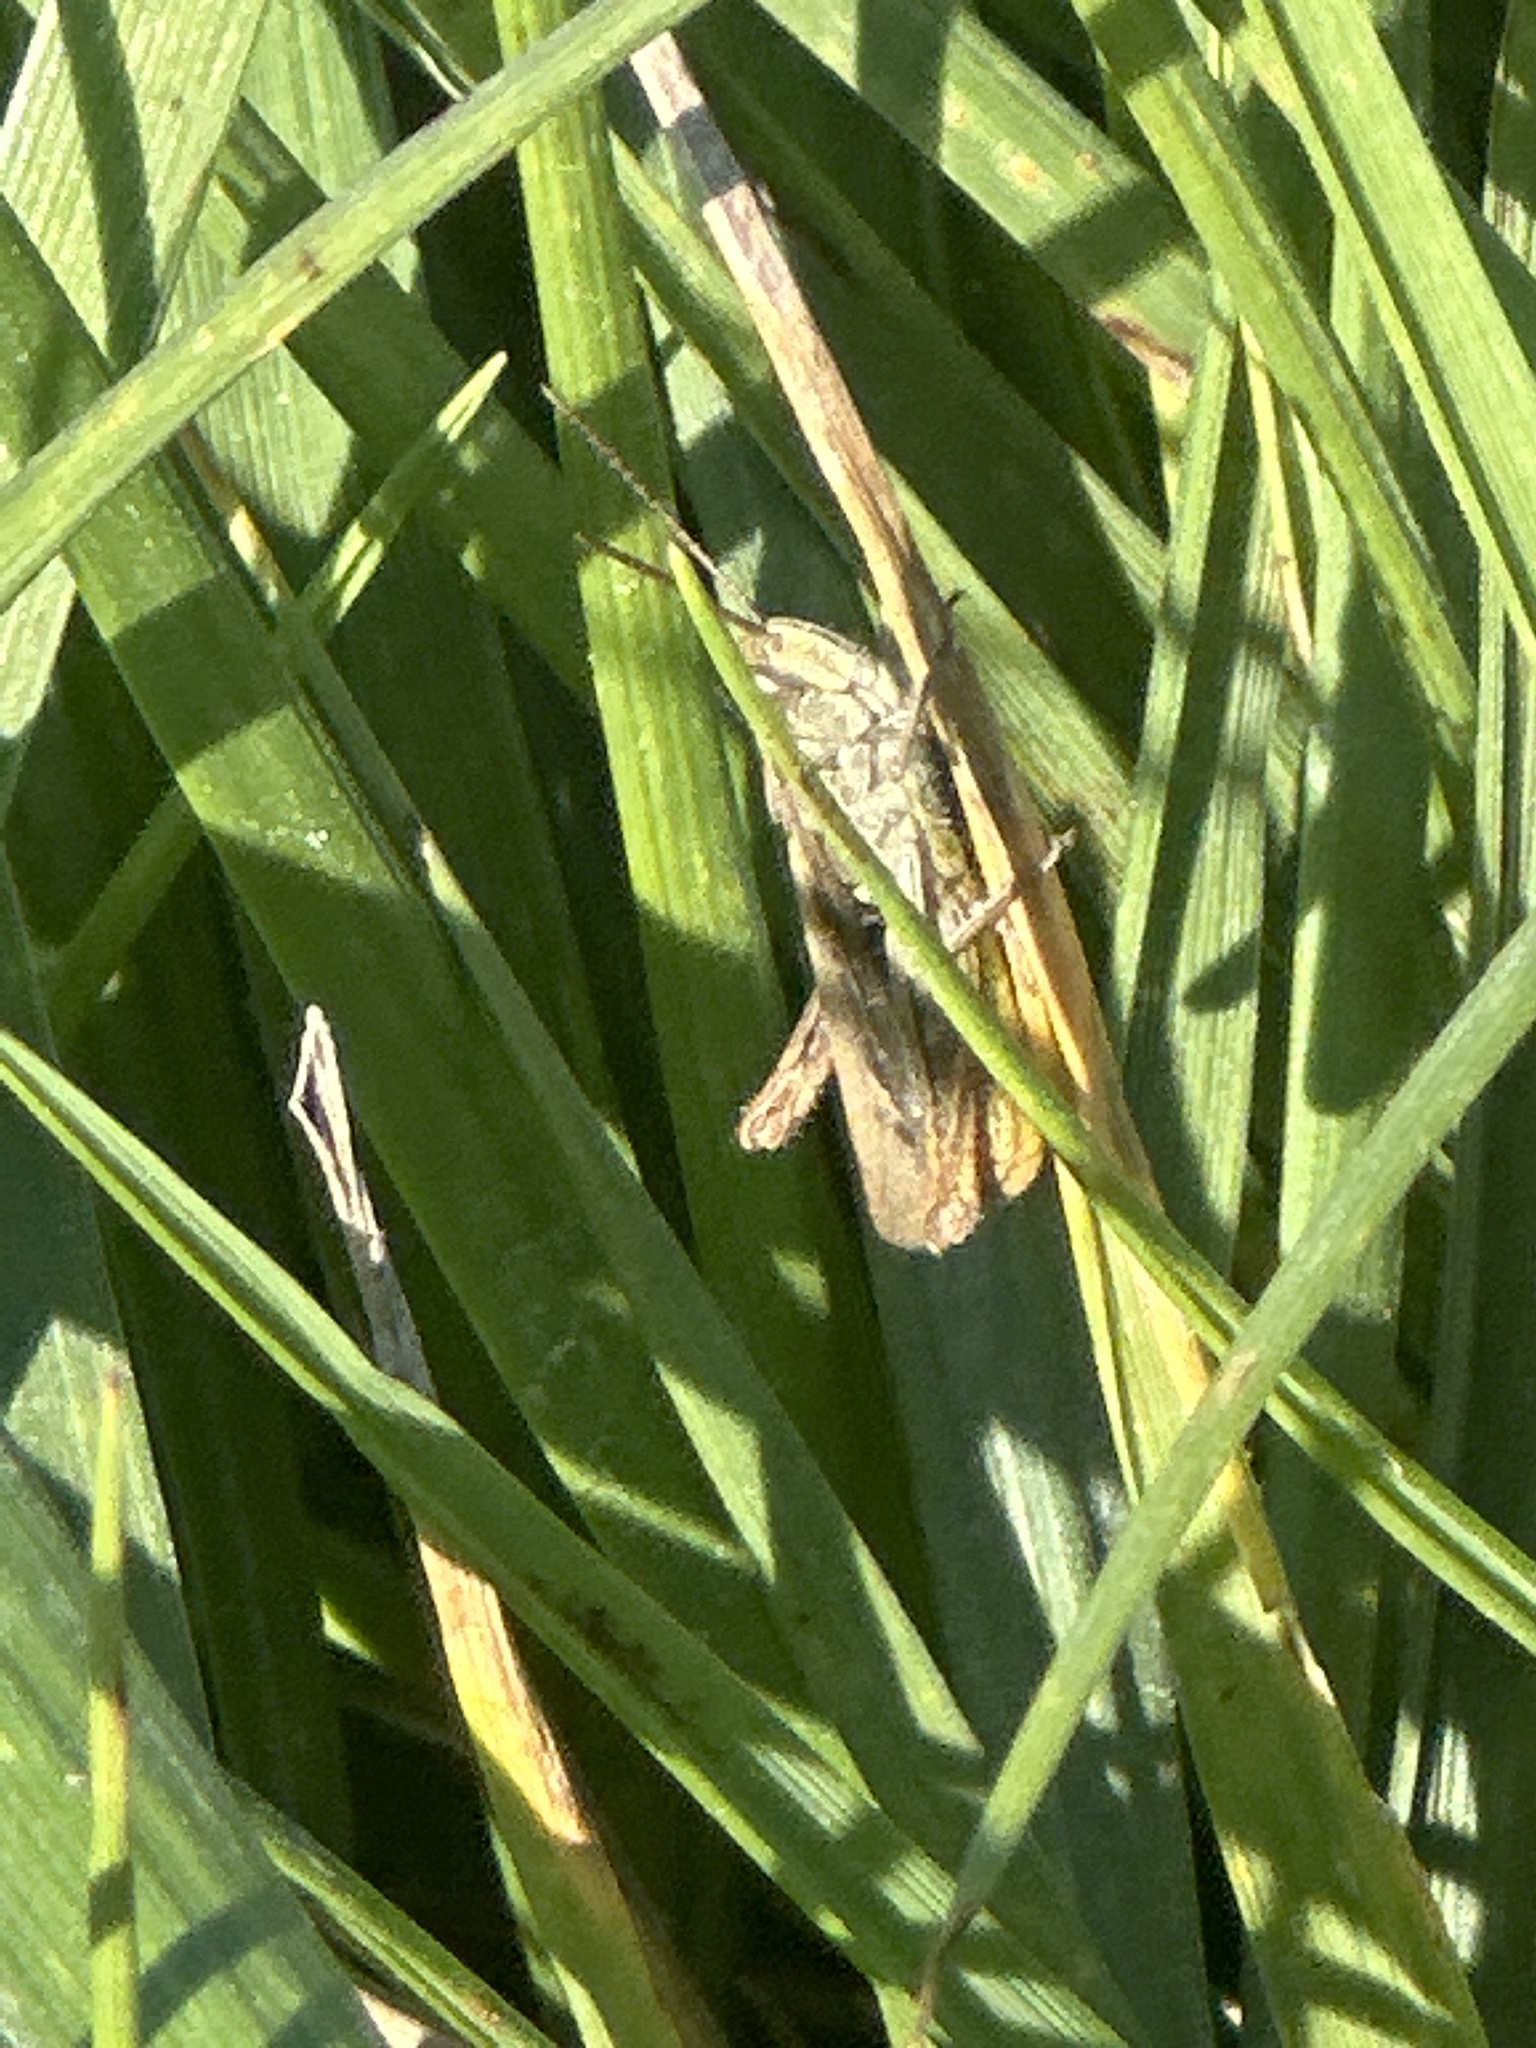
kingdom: Animalia
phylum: Arthropoda
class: Insecta
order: Orthoptera
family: Acrididae
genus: Chorthippus
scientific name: Chorthippus mollis
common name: Lesser field grasshopper
